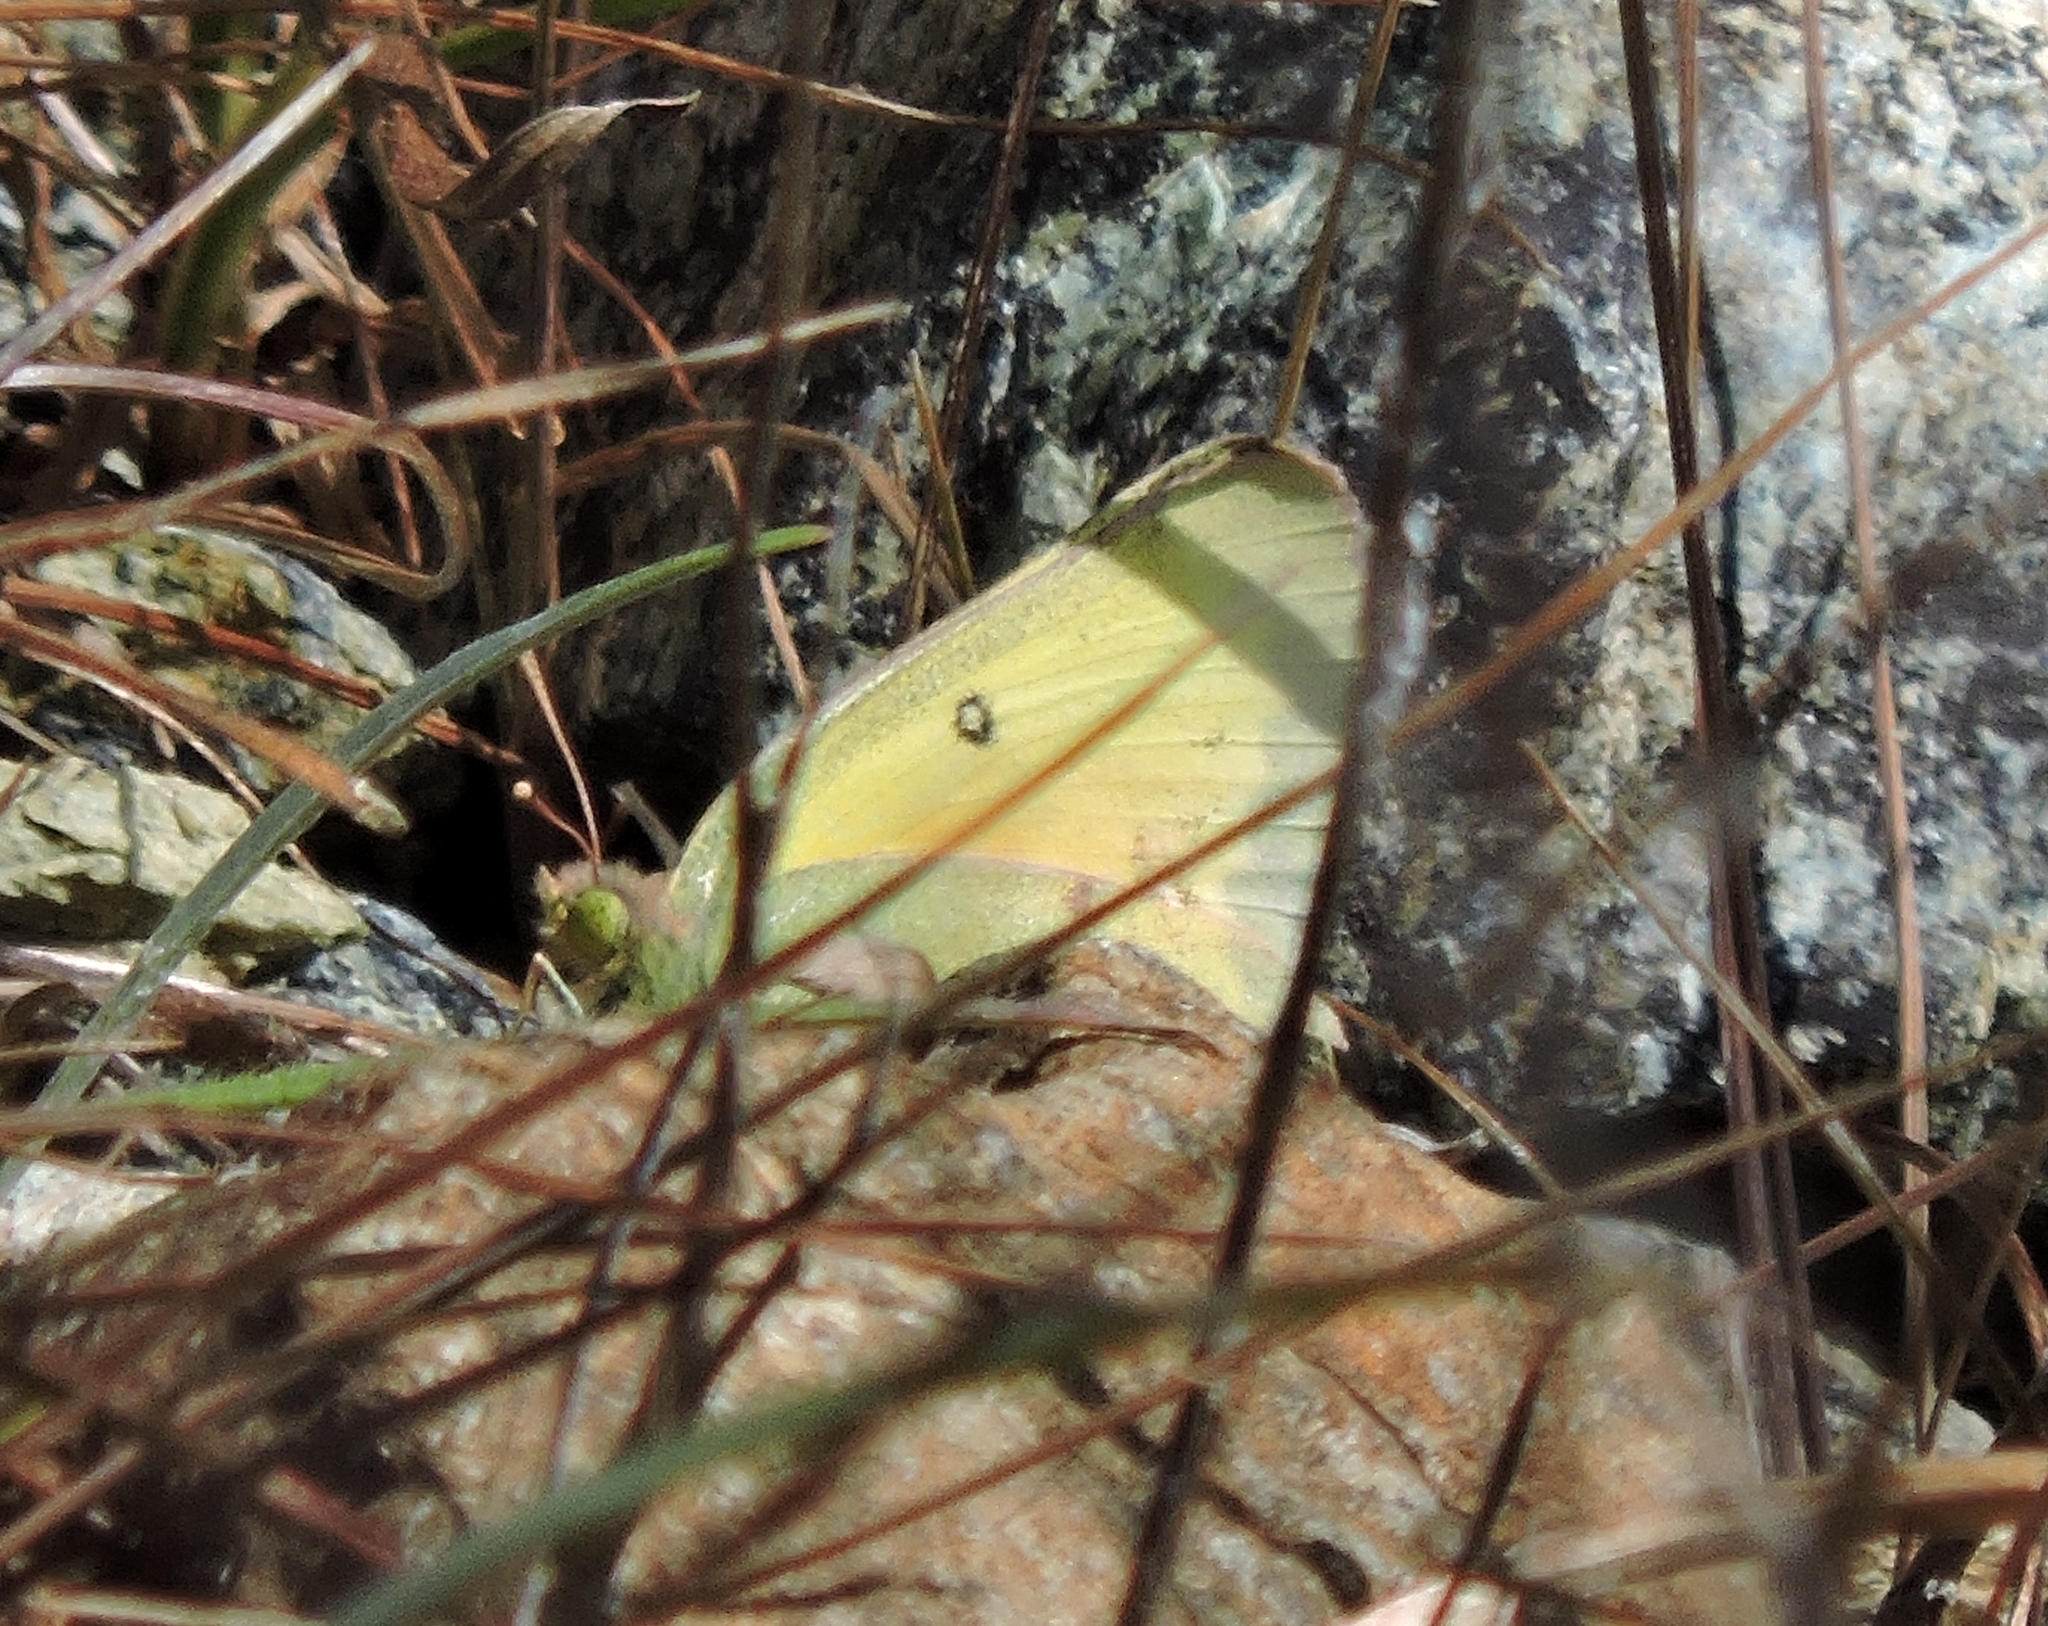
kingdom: Animalia
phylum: Arthropoda
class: Insecta
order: Lepidoptera
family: Pieridae
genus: Colias
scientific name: Colias eurytheme
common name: Alfalfa butterfly
